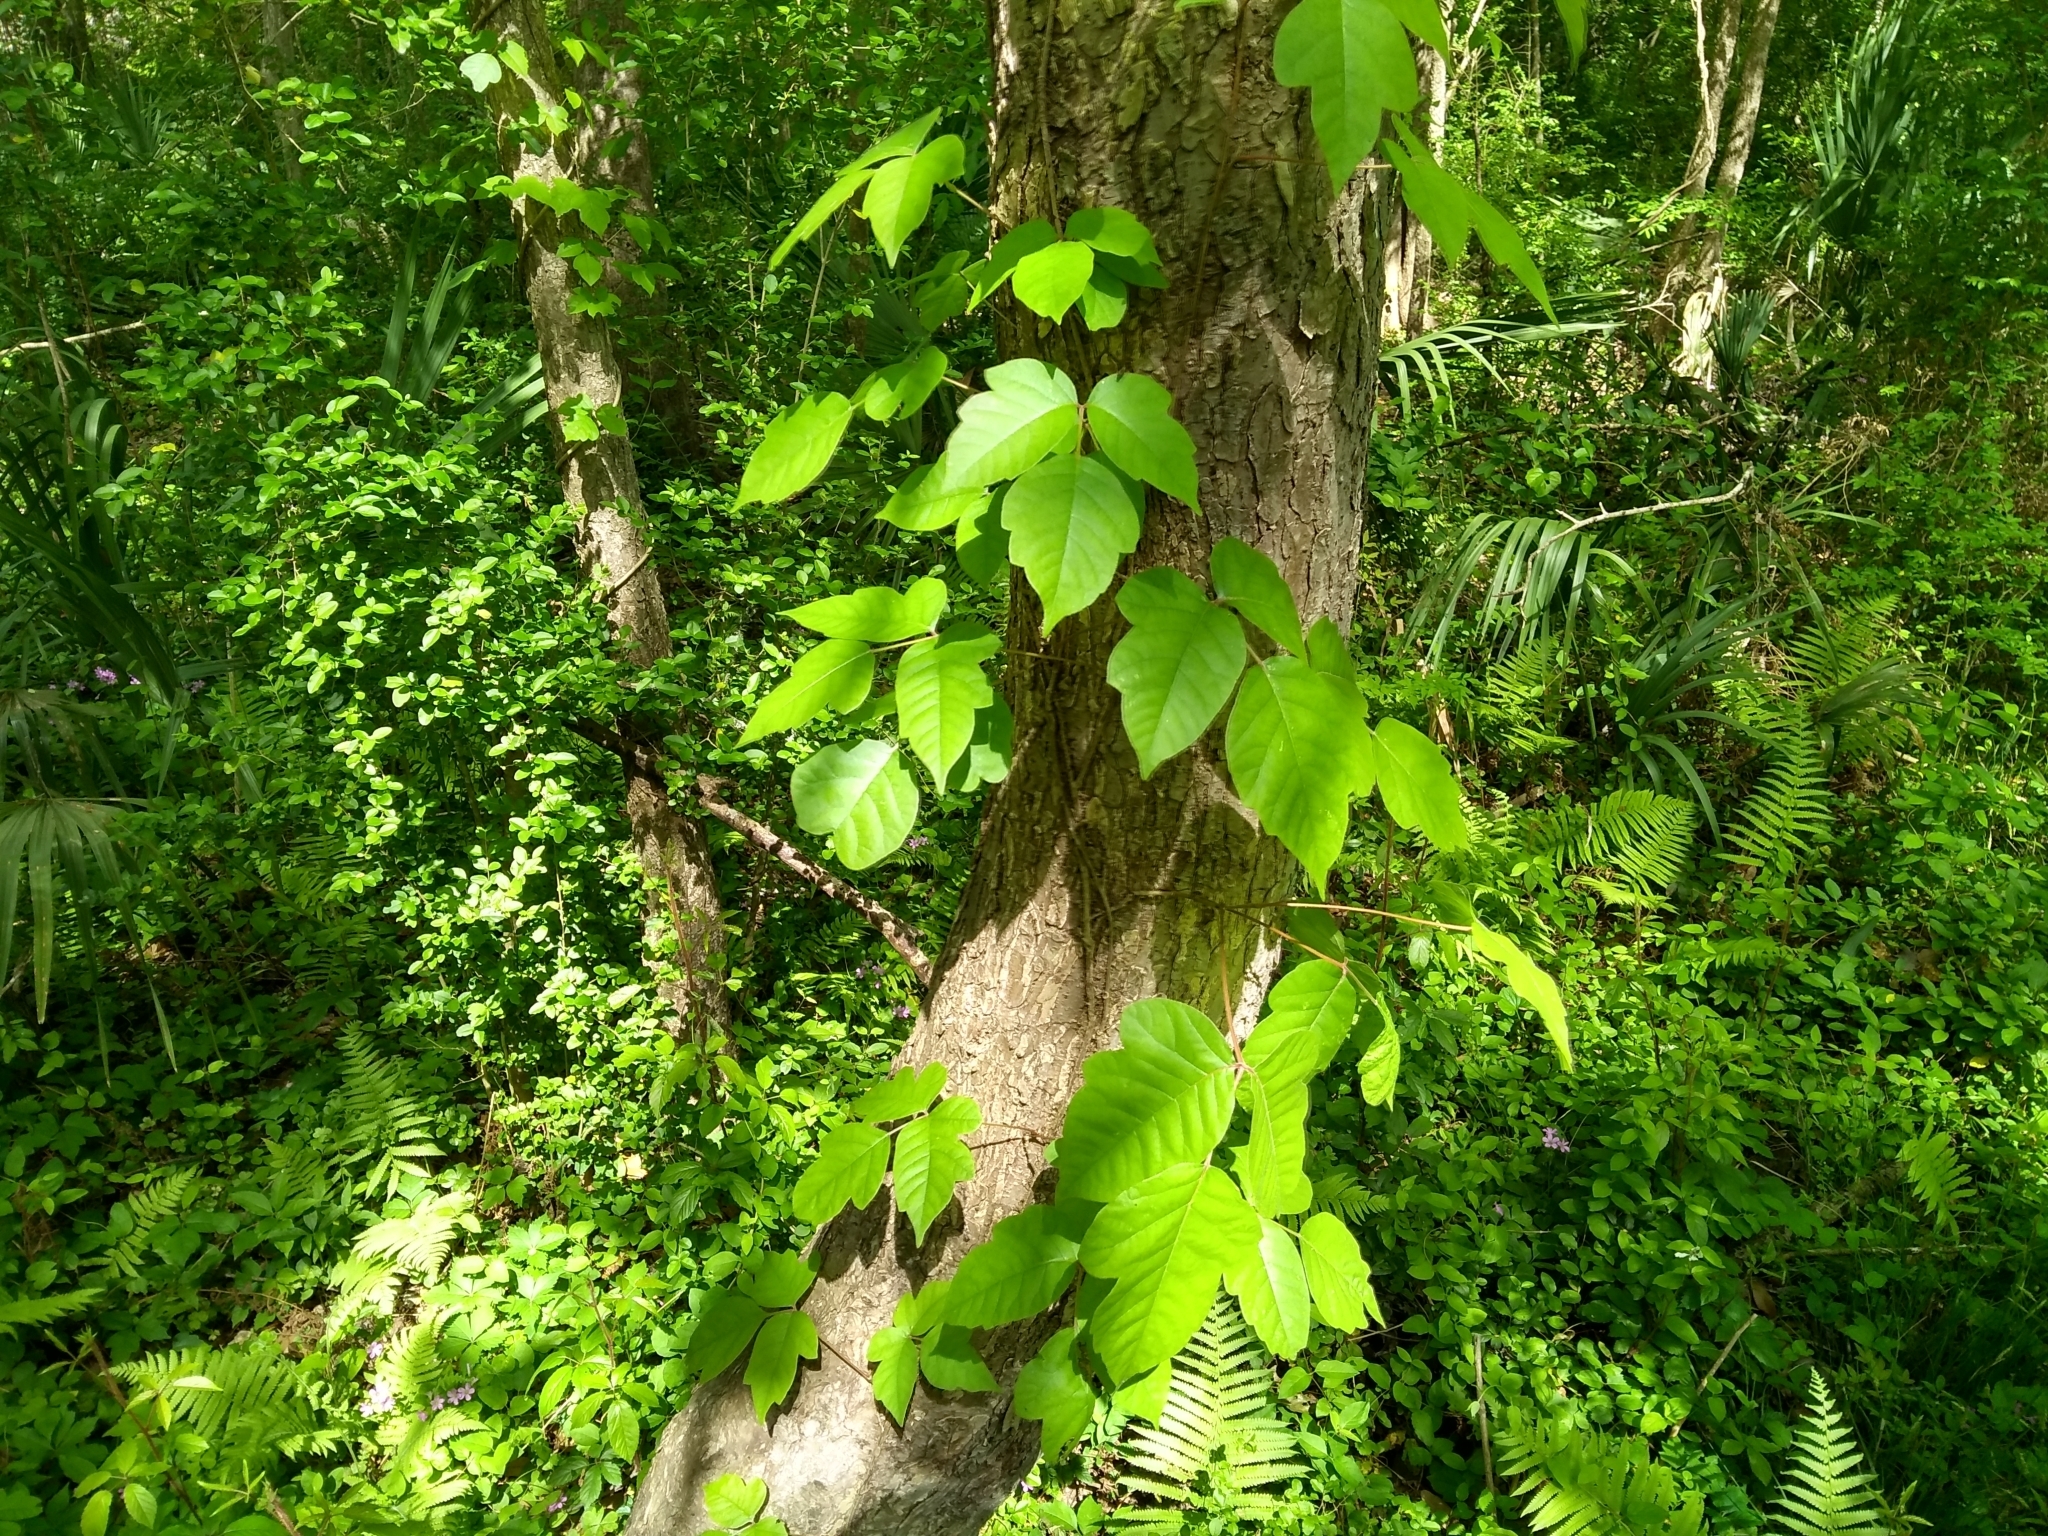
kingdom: Plantae
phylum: Tracheophyta
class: Magnoliopsida
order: Sapindales
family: Anacardiaceae
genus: Toxicodendron
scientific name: Toxicodendron radicans
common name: Poison ivy
